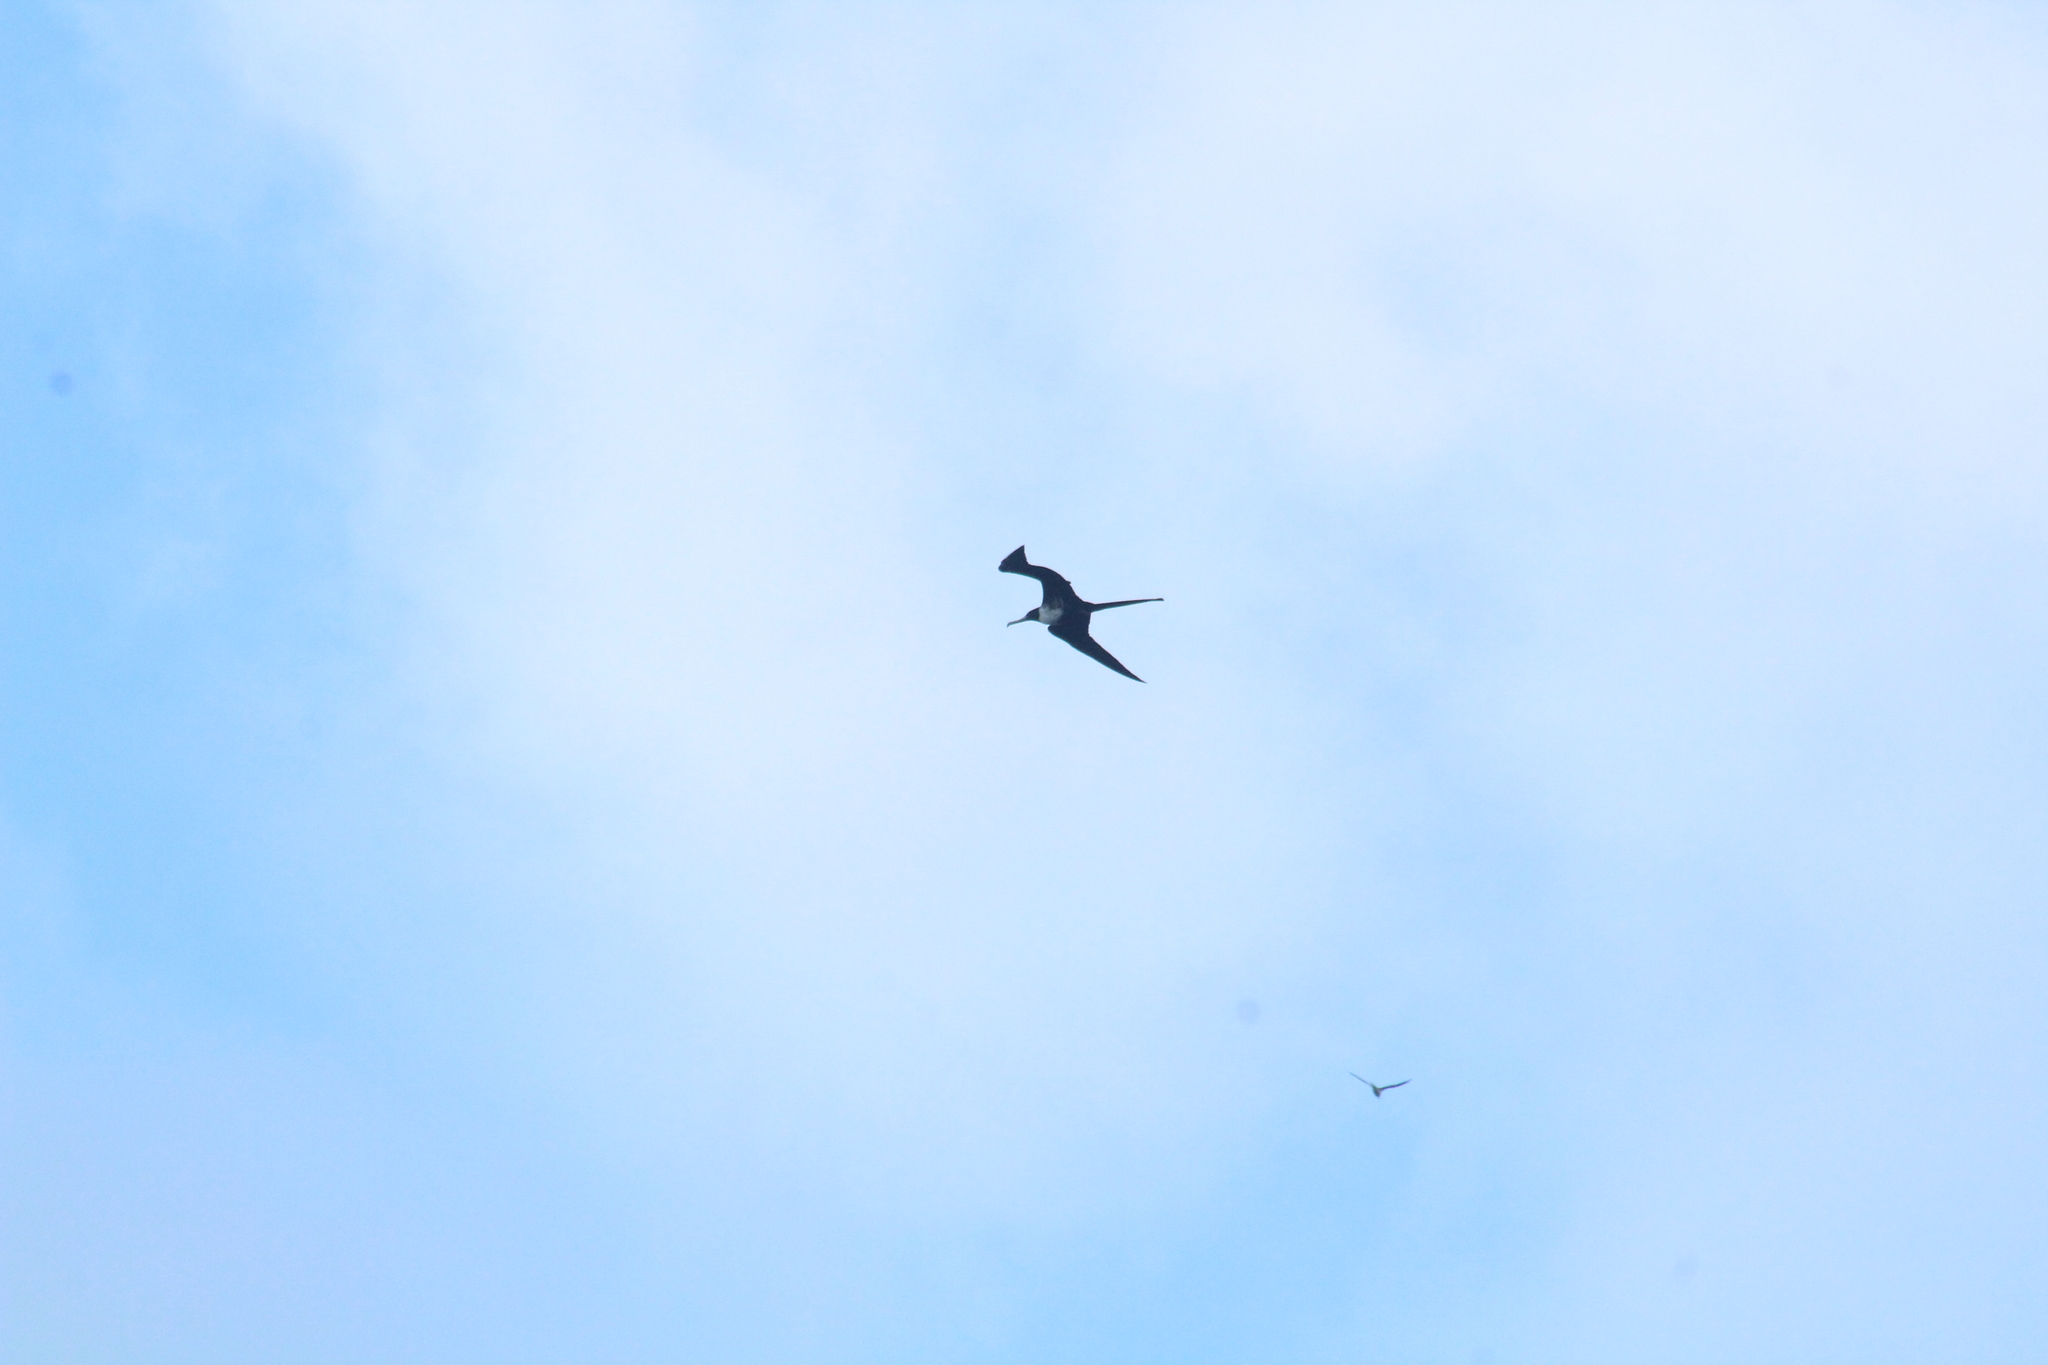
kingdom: Animalia
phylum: Chordata
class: Aves
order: Suliformes
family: Fregatidae
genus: Fregata
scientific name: Fregata magnificens
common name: Magnificent frigatebird
